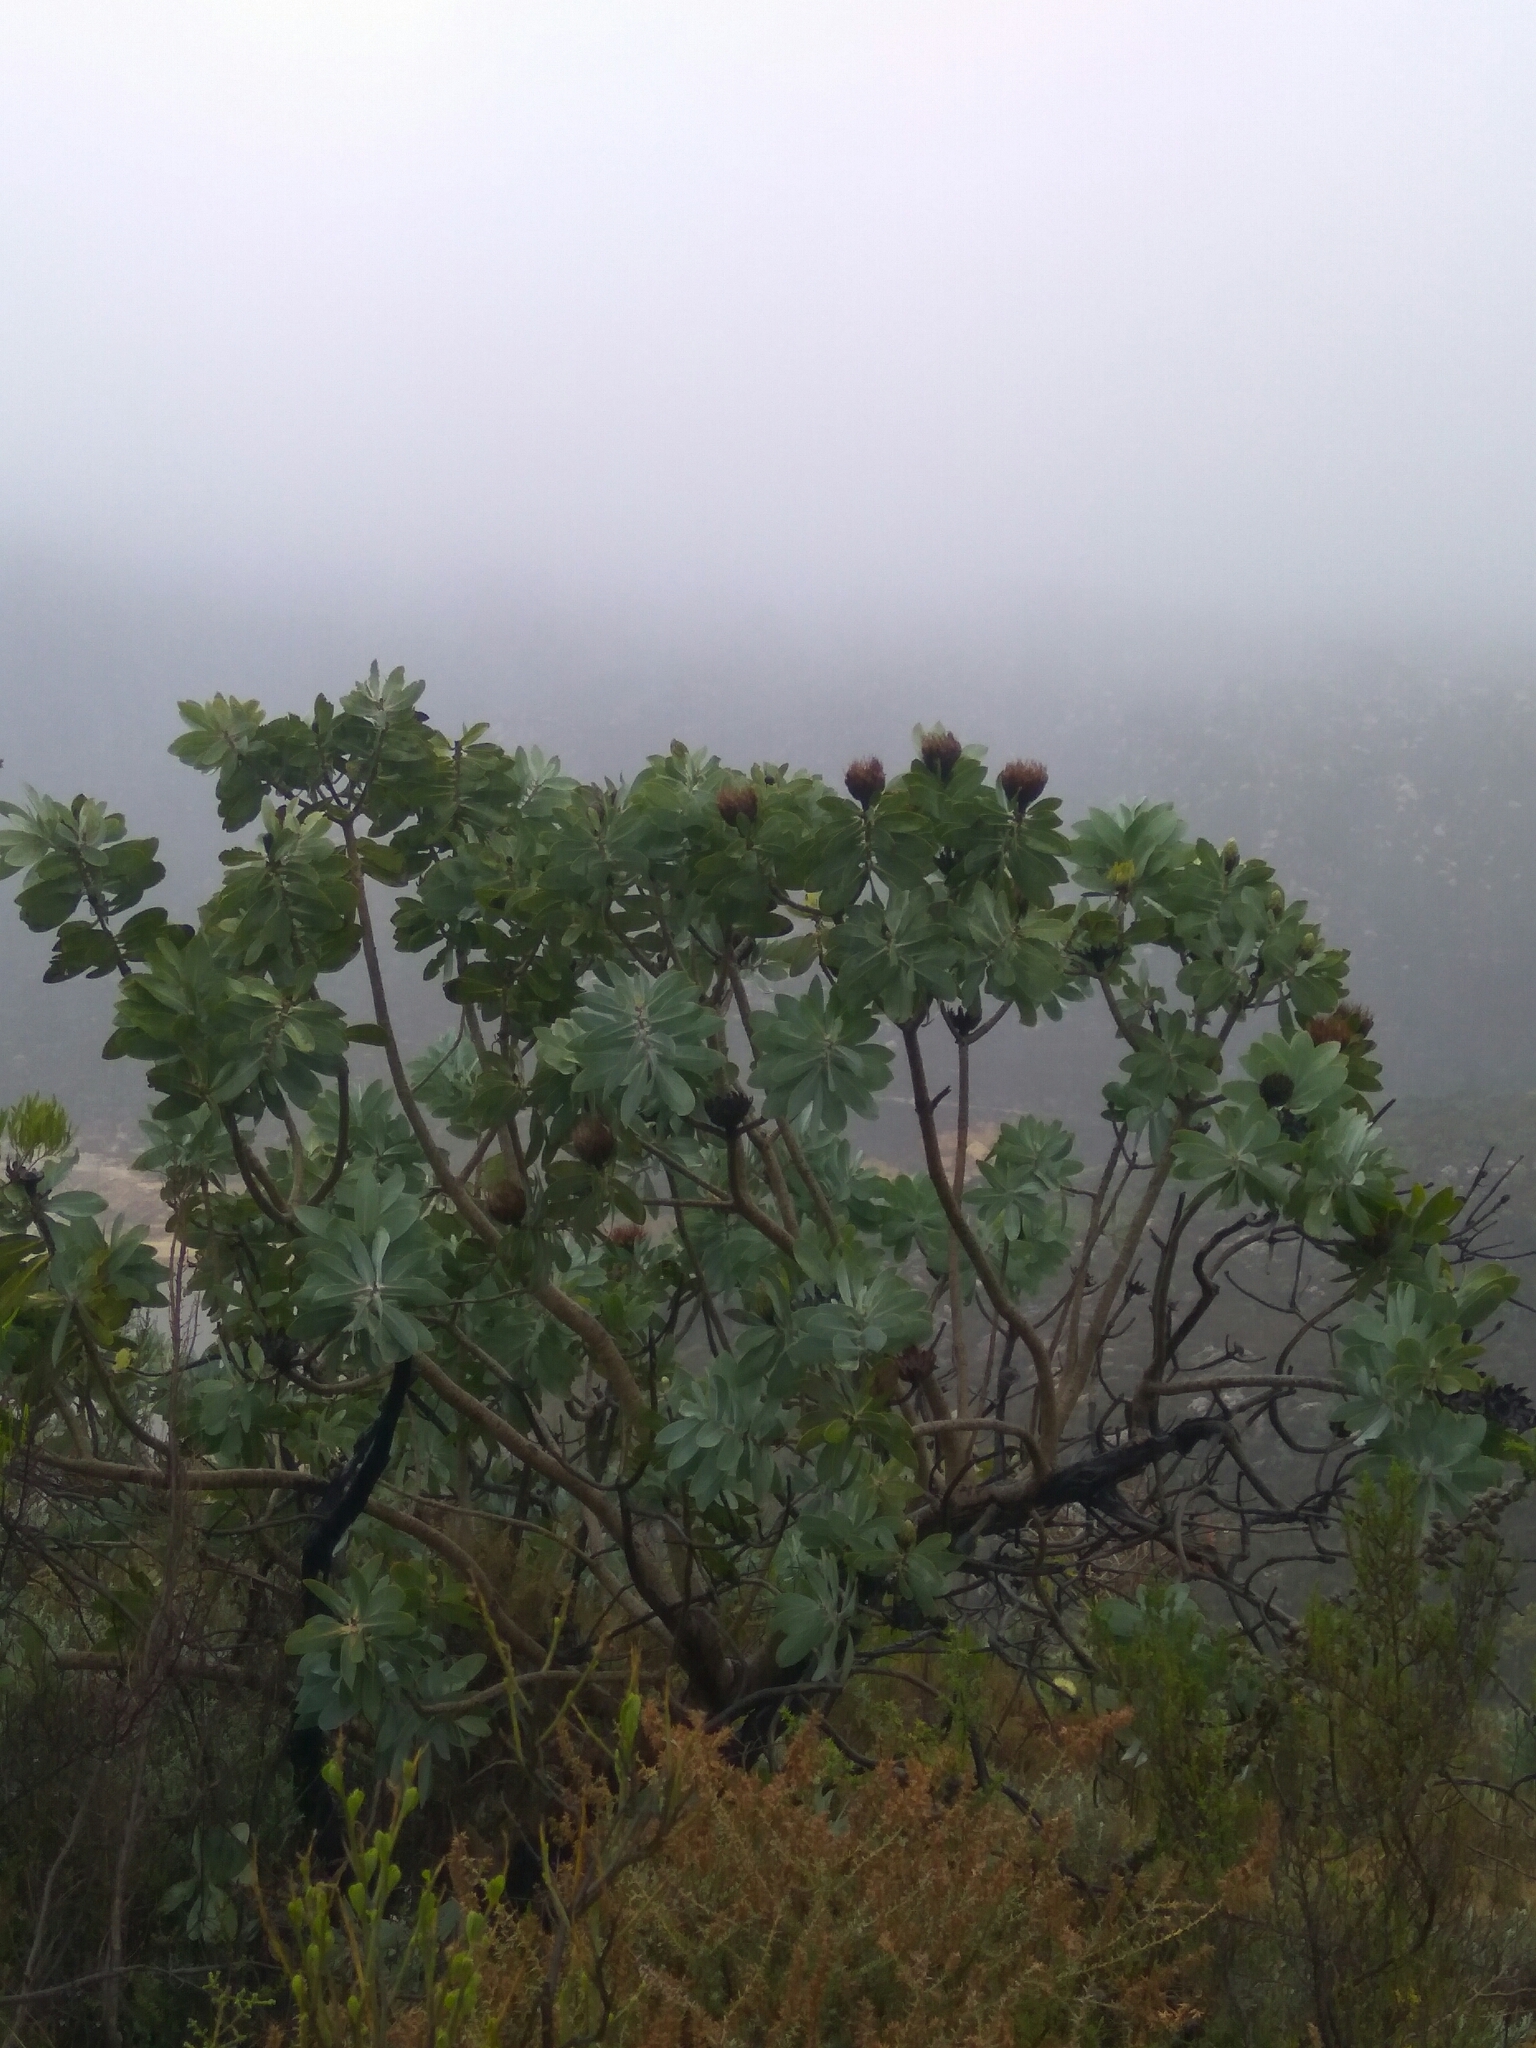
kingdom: Plantae
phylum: Tracheophyta
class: Magnoliopsida
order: Proteales
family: Proteaceae
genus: Protea
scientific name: Protea nitida
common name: Tree protea
